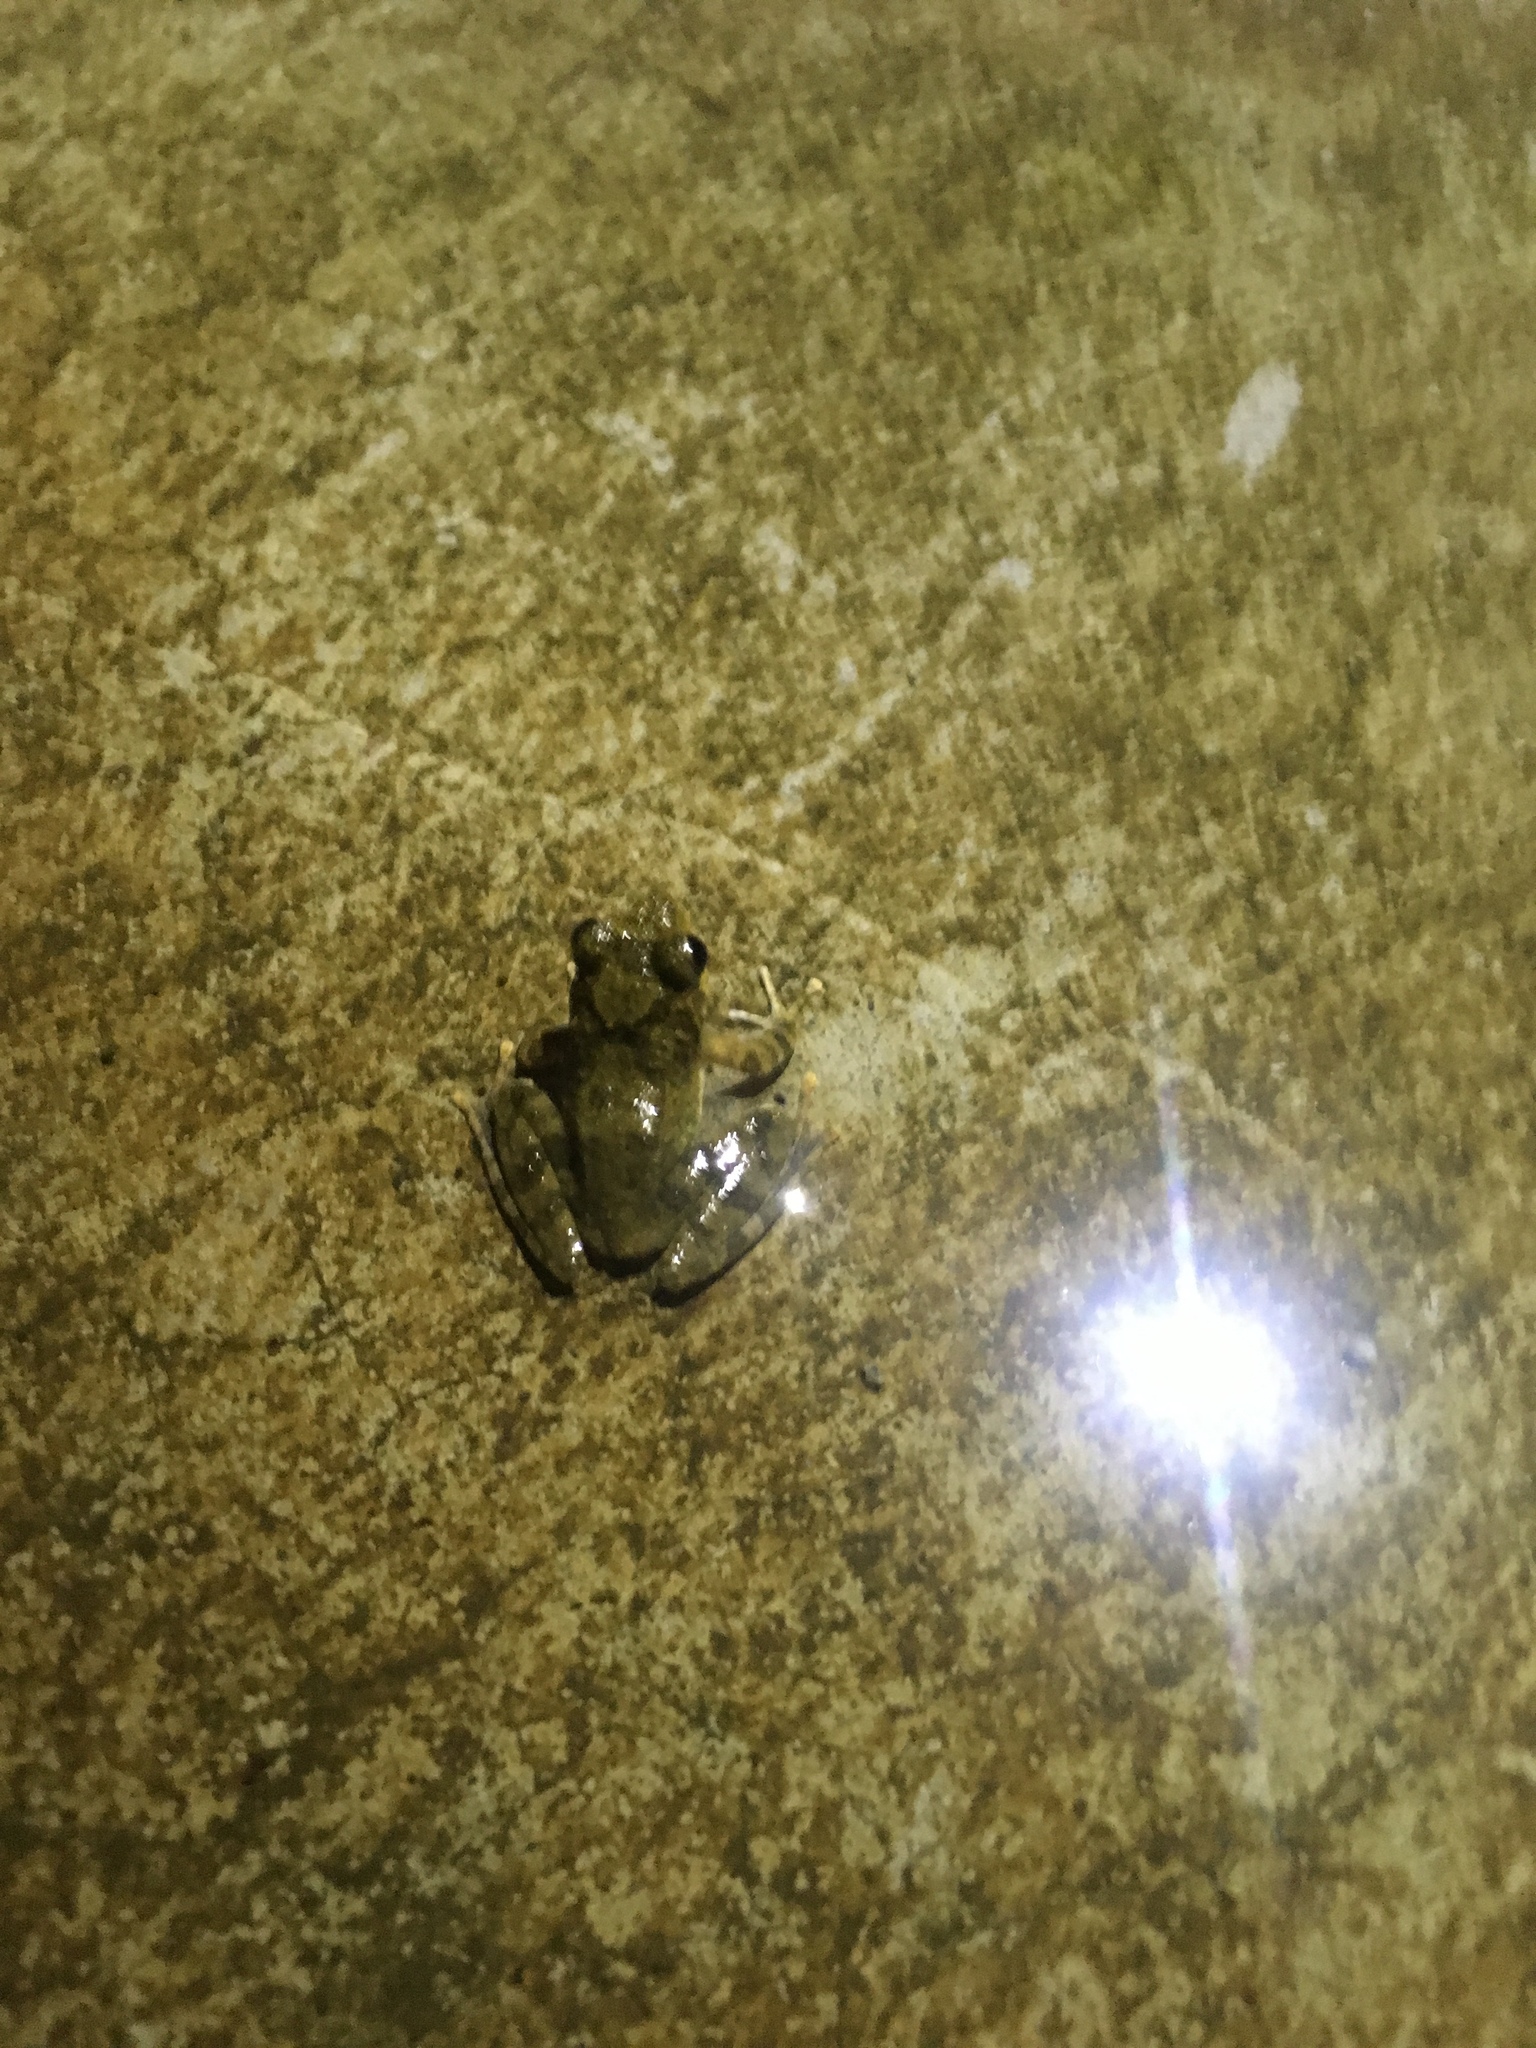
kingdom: Animalia
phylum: Chordata
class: Amphibia
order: Anura
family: Rhacophoridae
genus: Buergeria
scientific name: Buergeria otai
